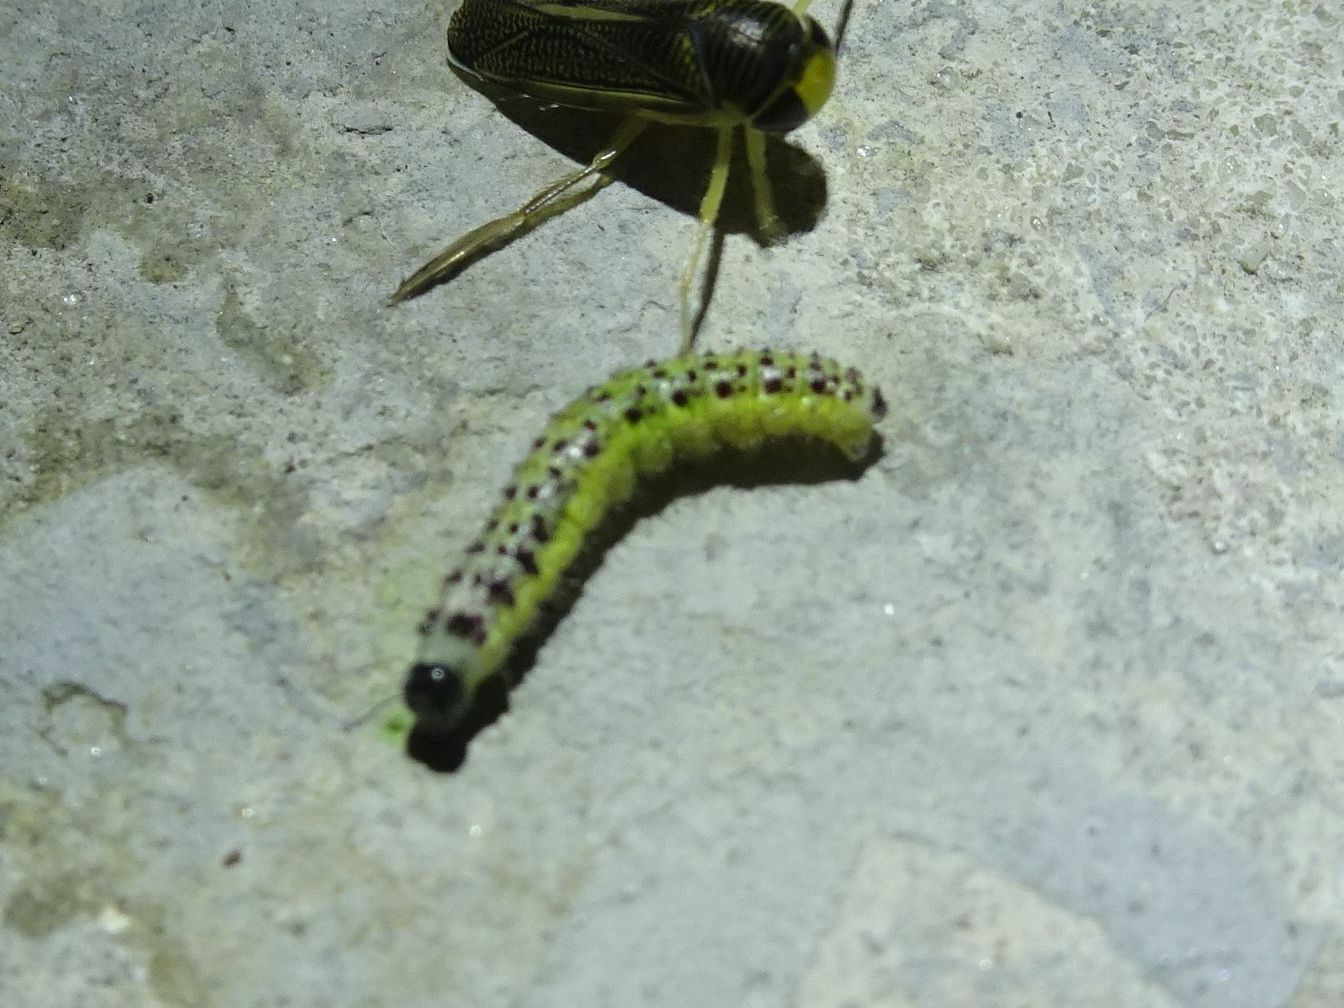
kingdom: Animalia
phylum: Arthropoda
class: Insecta
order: Lepidoptera
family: Pieridae
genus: Pieris
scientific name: Pieris brassicae
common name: Large white
